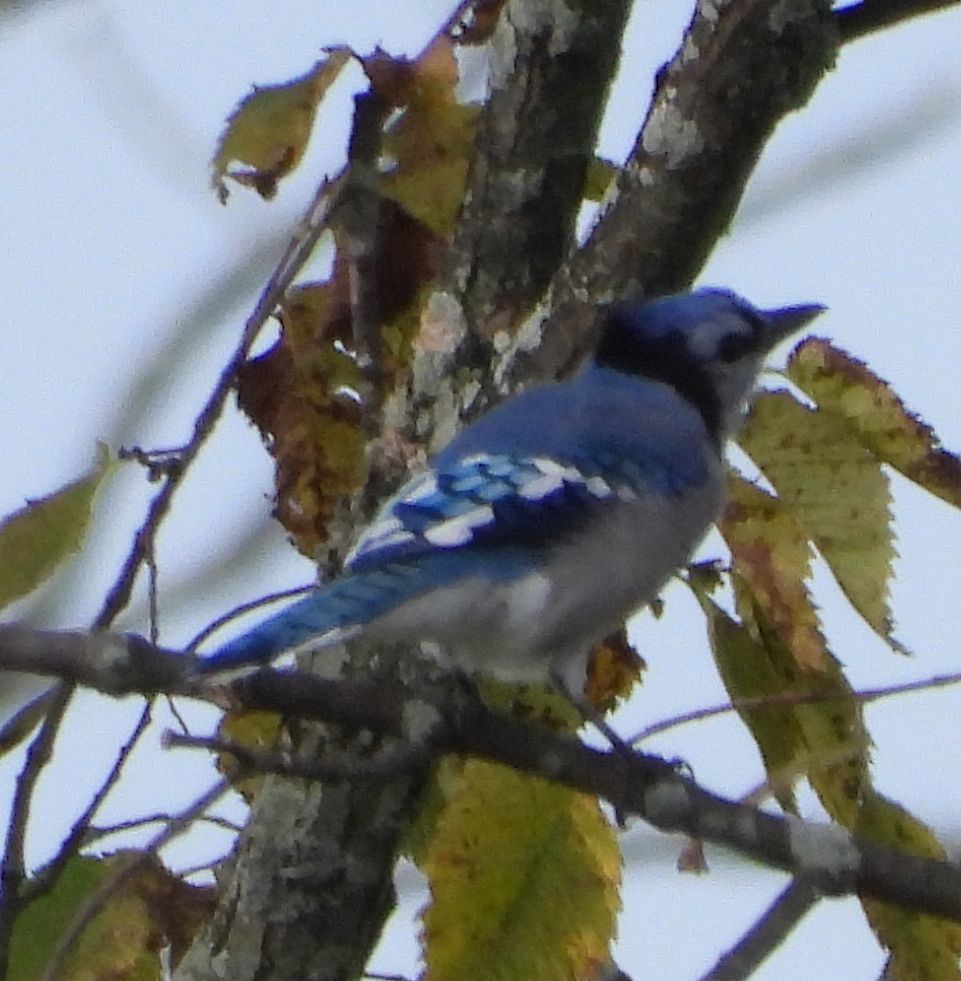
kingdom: Animalia
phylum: Chordata
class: Aves
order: Passeriformes
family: Corvidae
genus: Cyanocitta
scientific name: Cyanocitta cristata
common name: Blue jay
